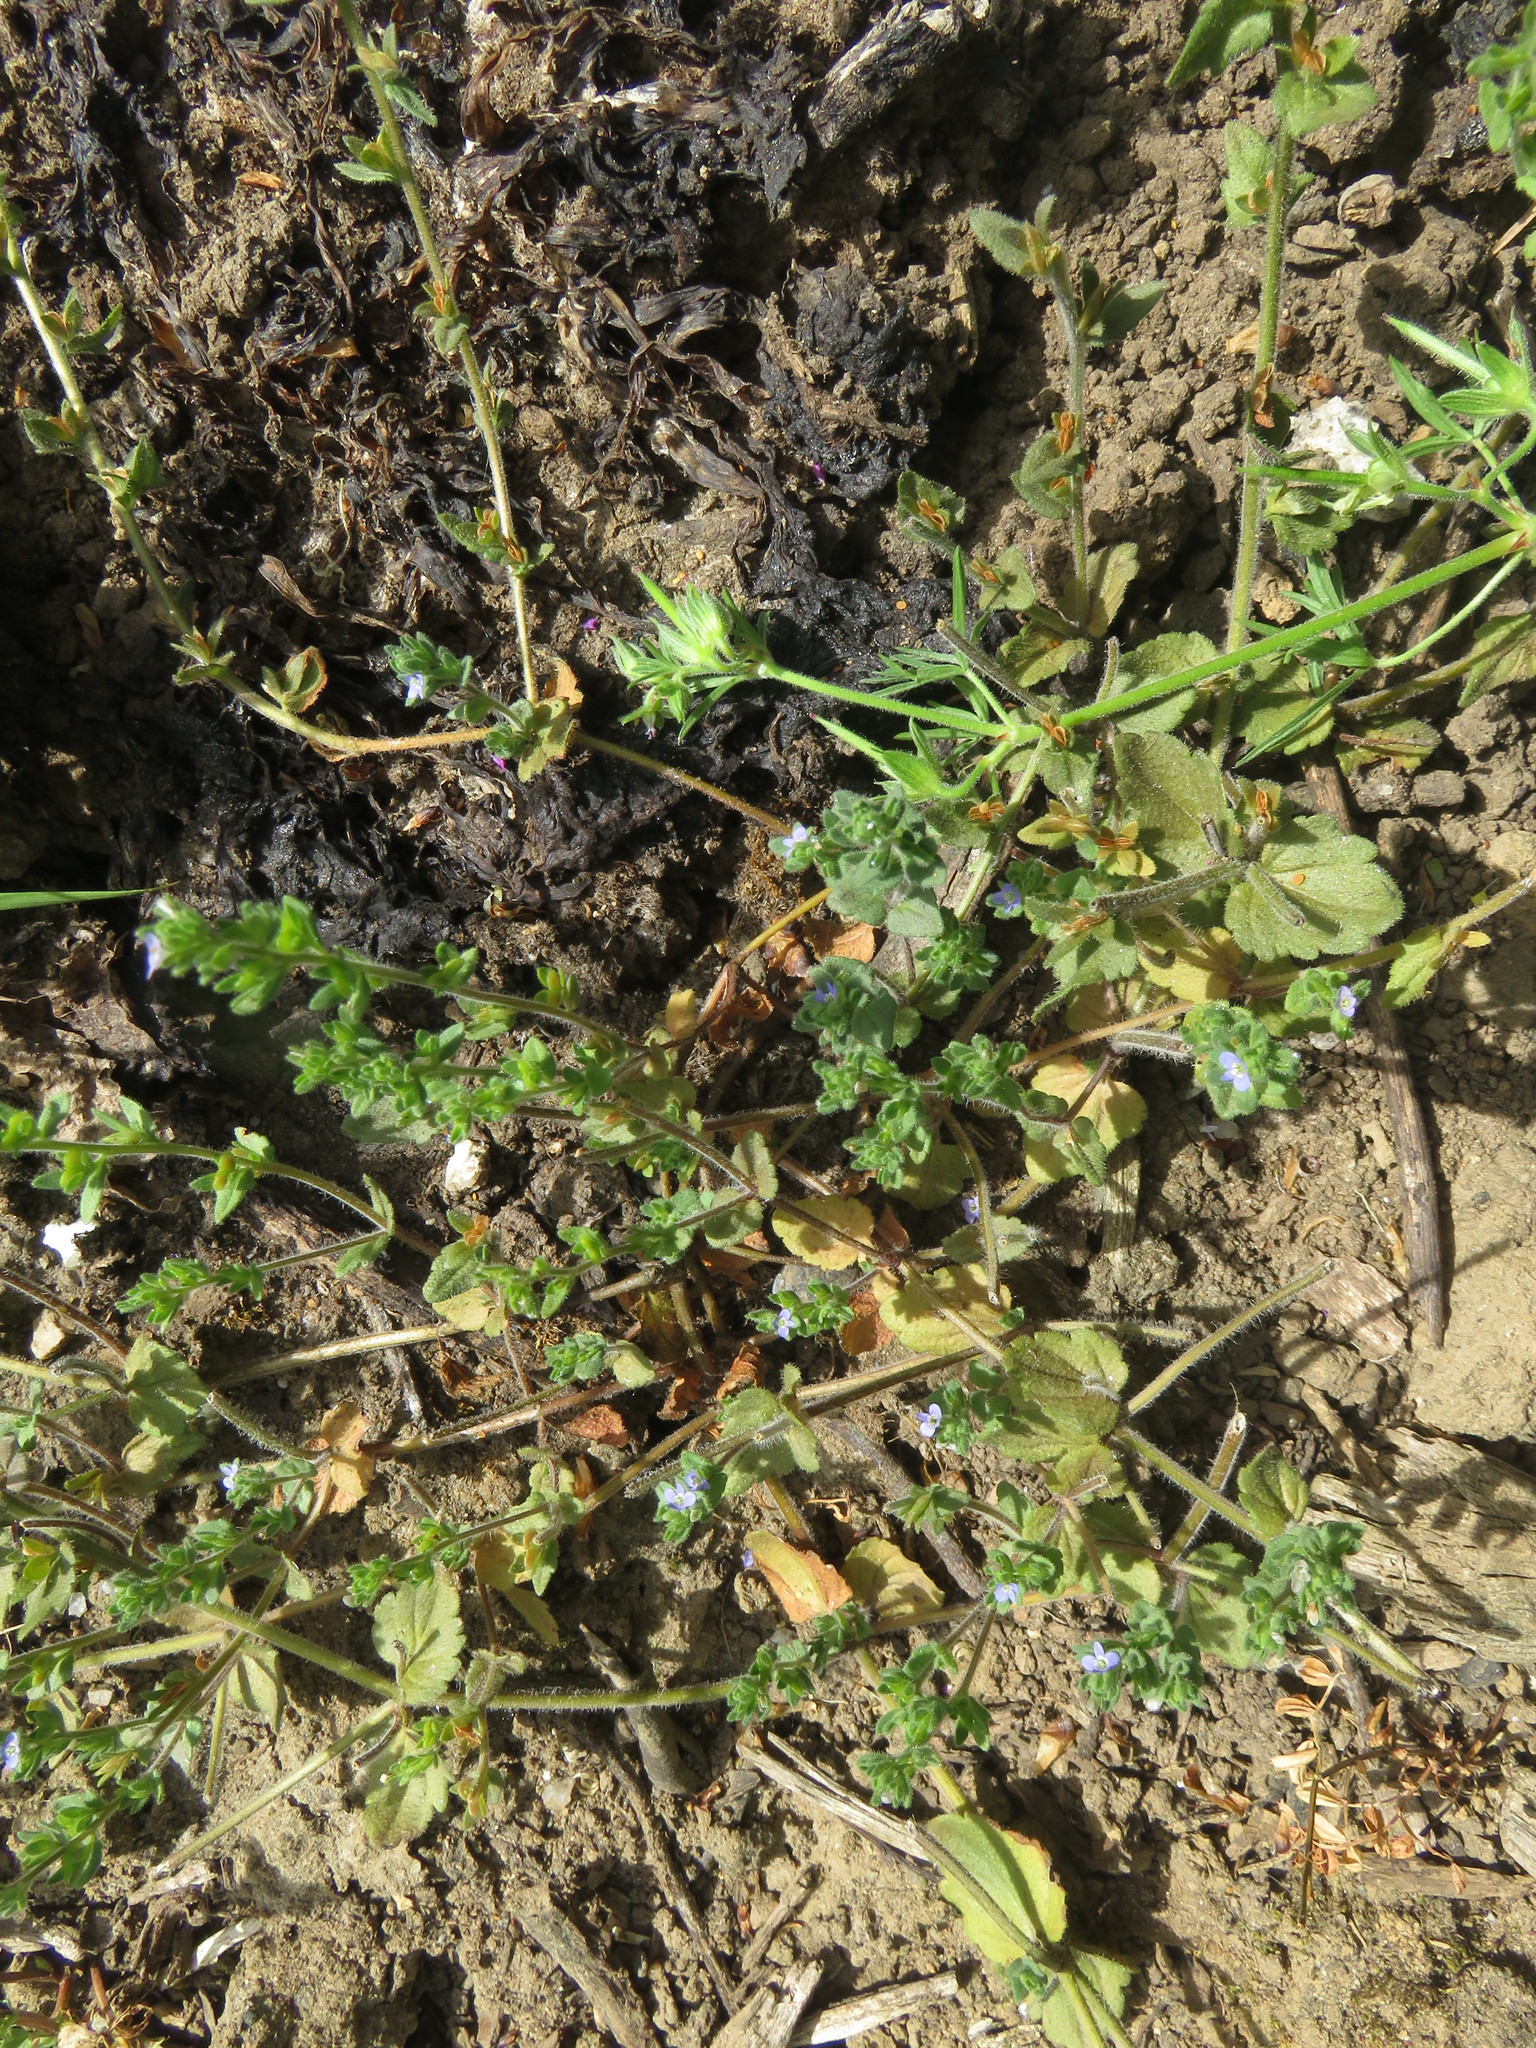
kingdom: Plantae
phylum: Tracheophyta
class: Magnoliopsida
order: Lamiales
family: Plantaginaceae
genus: Veronica
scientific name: Veronica arvensis
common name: Corn speedwell
